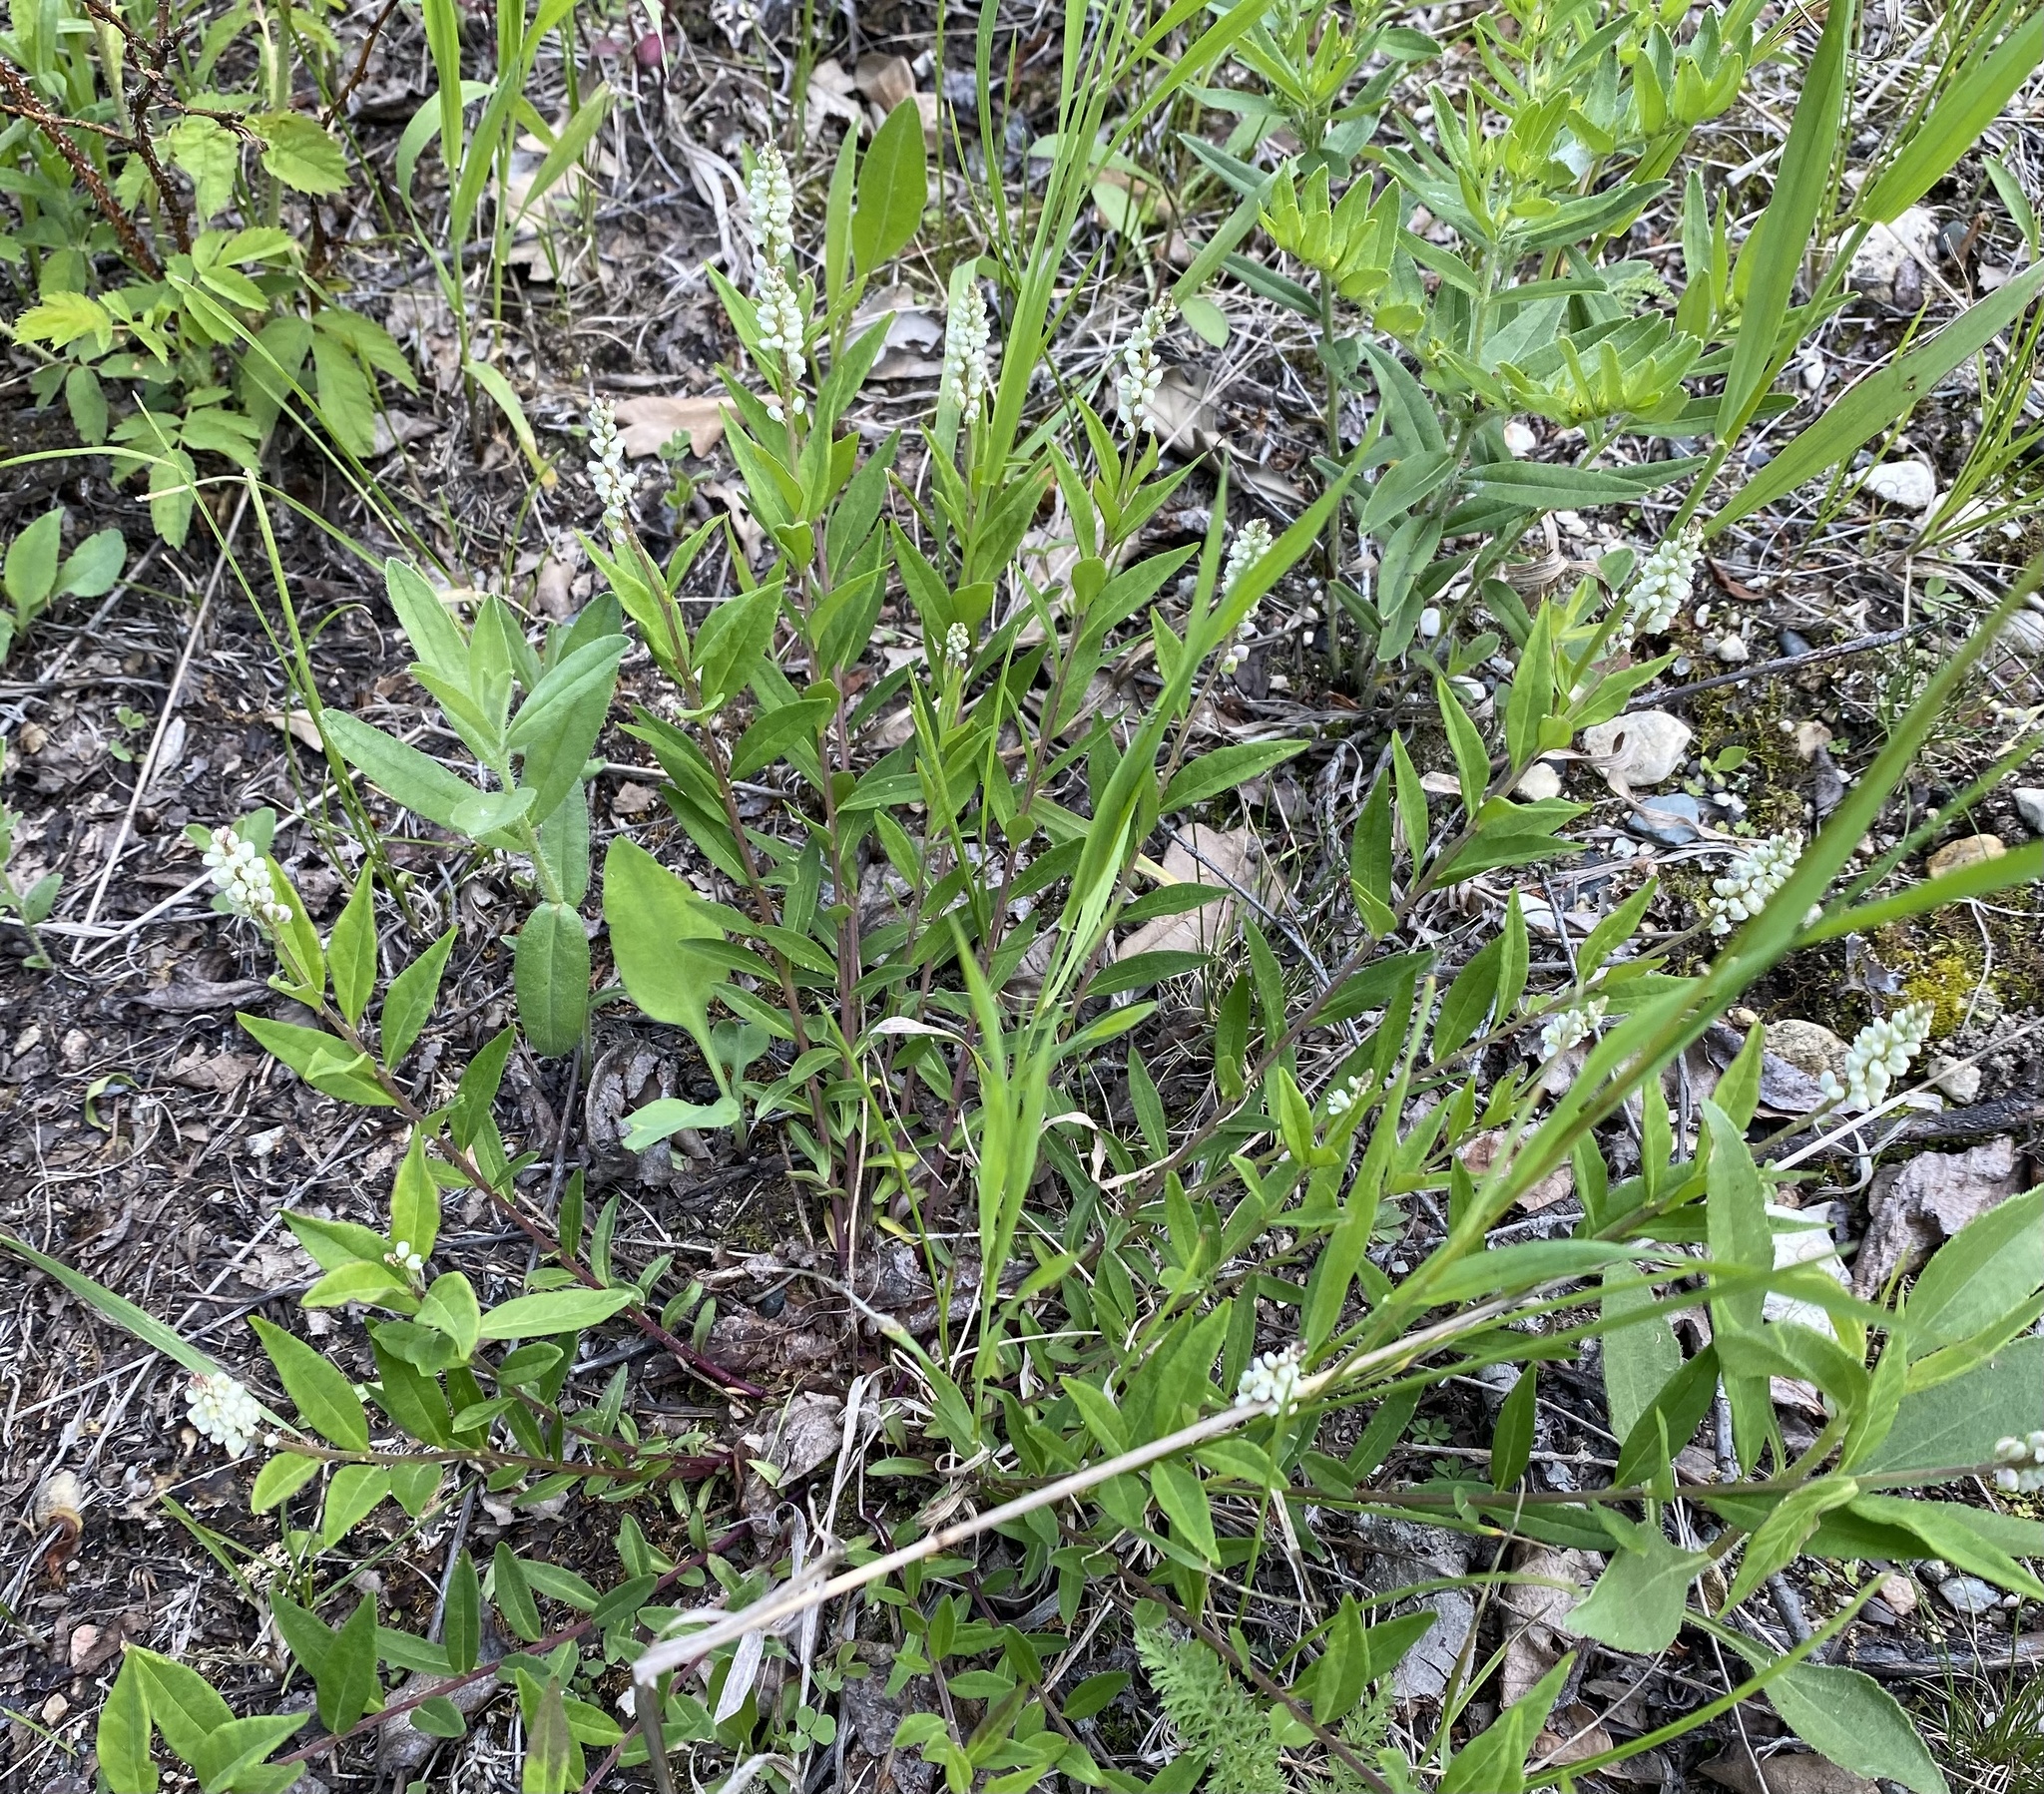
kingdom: Plantae
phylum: Tracheophyta
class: Magnoliopsida
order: Fabales
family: Polygalaceae
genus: Polygala
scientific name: Polygala senega
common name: Seneca snakeroot
